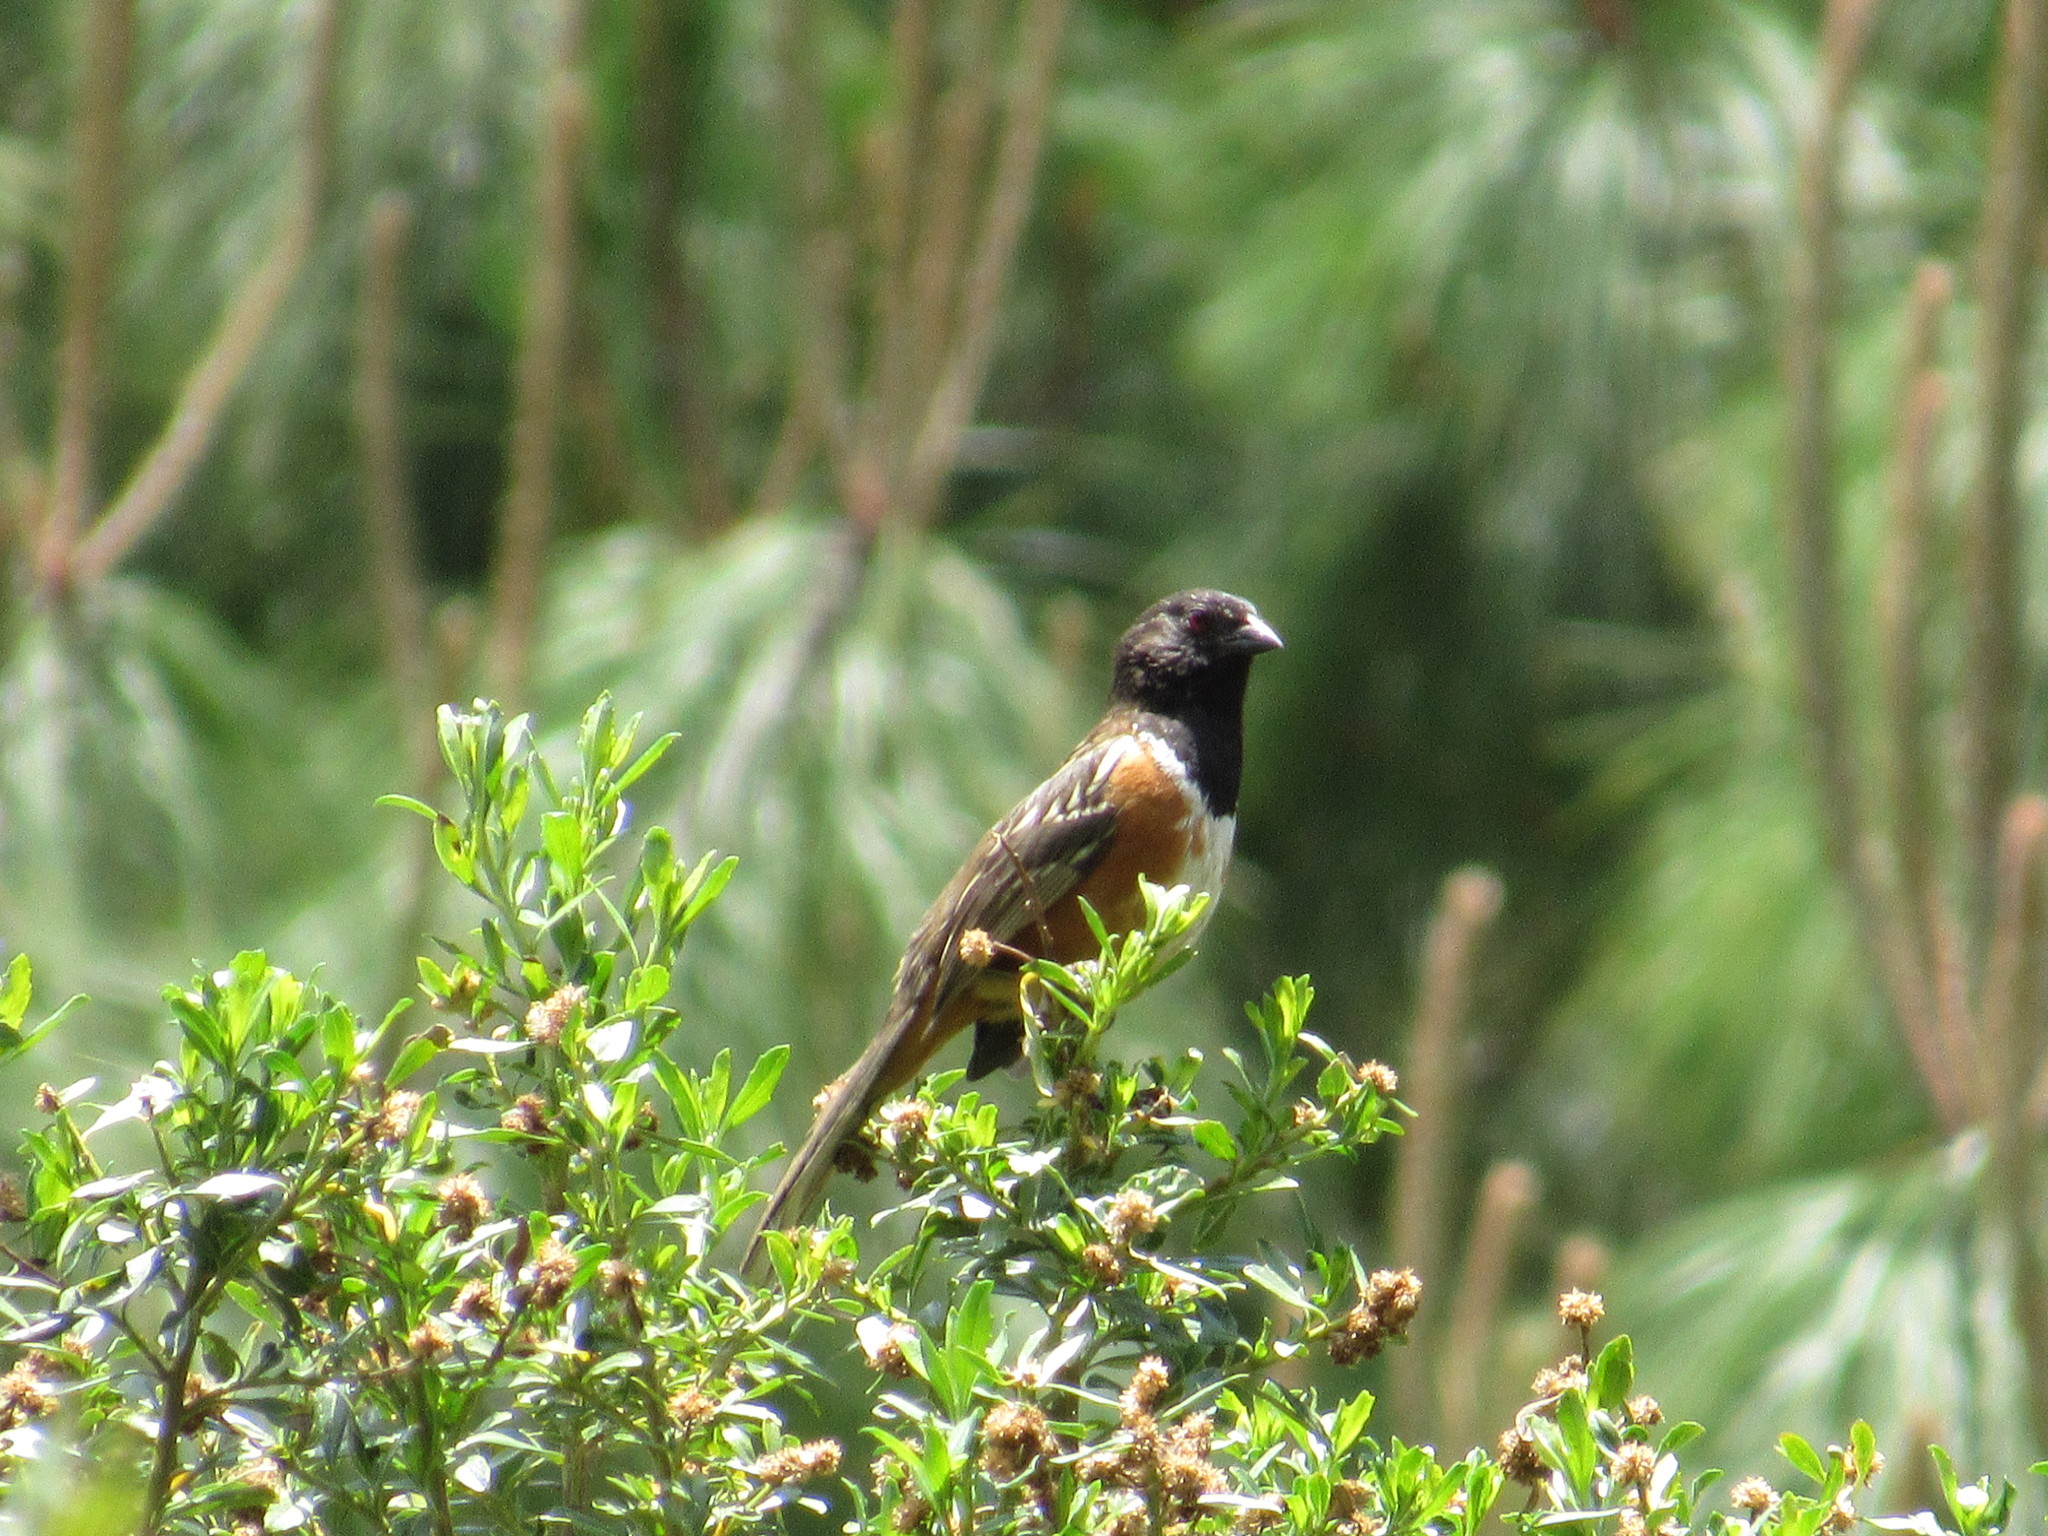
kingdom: Animalia
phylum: Chordata
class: Aves
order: Passeriformes
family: Passerellidae
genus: Pipilo
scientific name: Pipilo maculatus
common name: Spotted towhee
